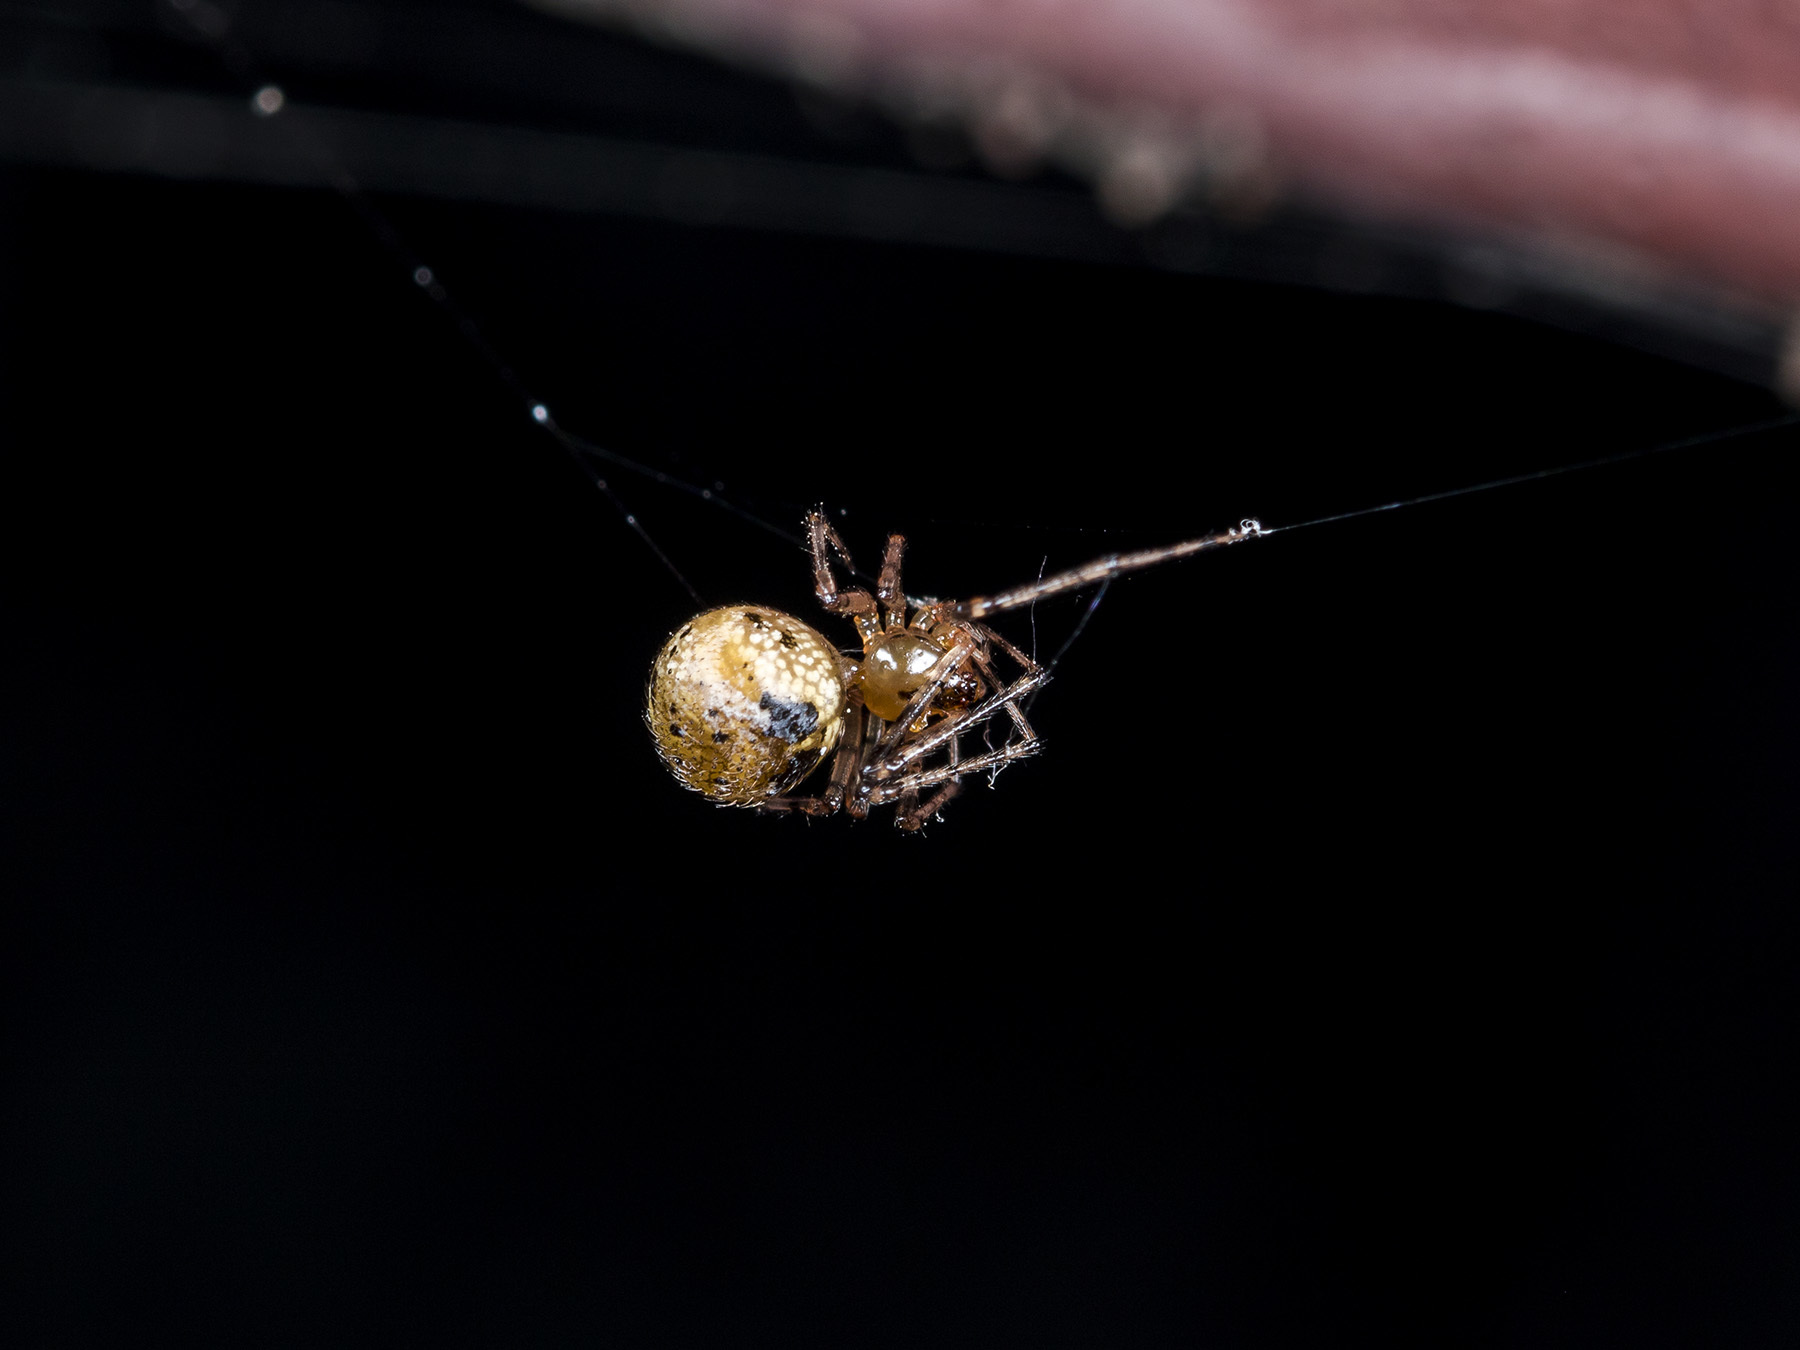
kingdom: Animalia
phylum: Arthropoda
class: Arachnida
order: Araneae
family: Theridiidae
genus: Platnickina
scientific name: Platnickina tincta
